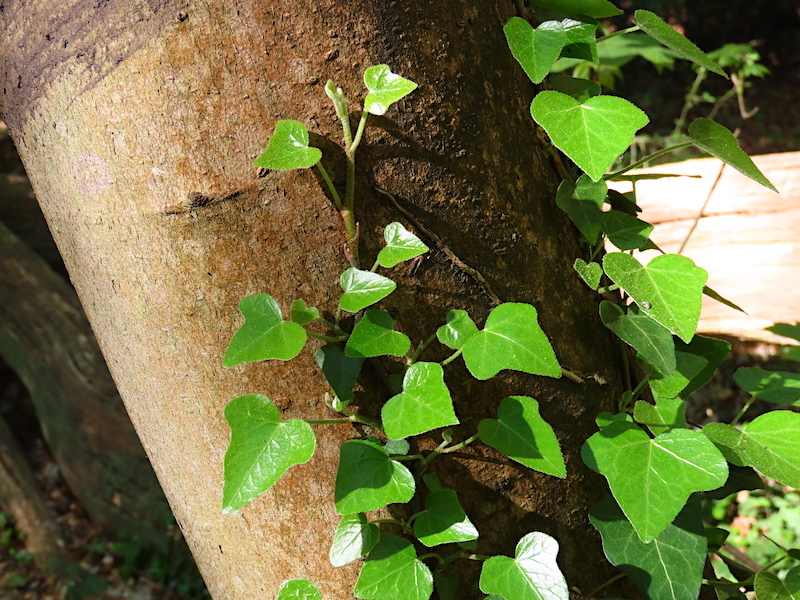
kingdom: Plantae
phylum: Tracheophyta
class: Magnoliopsida
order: Apiales
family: Araliaceae
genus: Hedera
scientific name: Hedera helix
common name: Ivy
